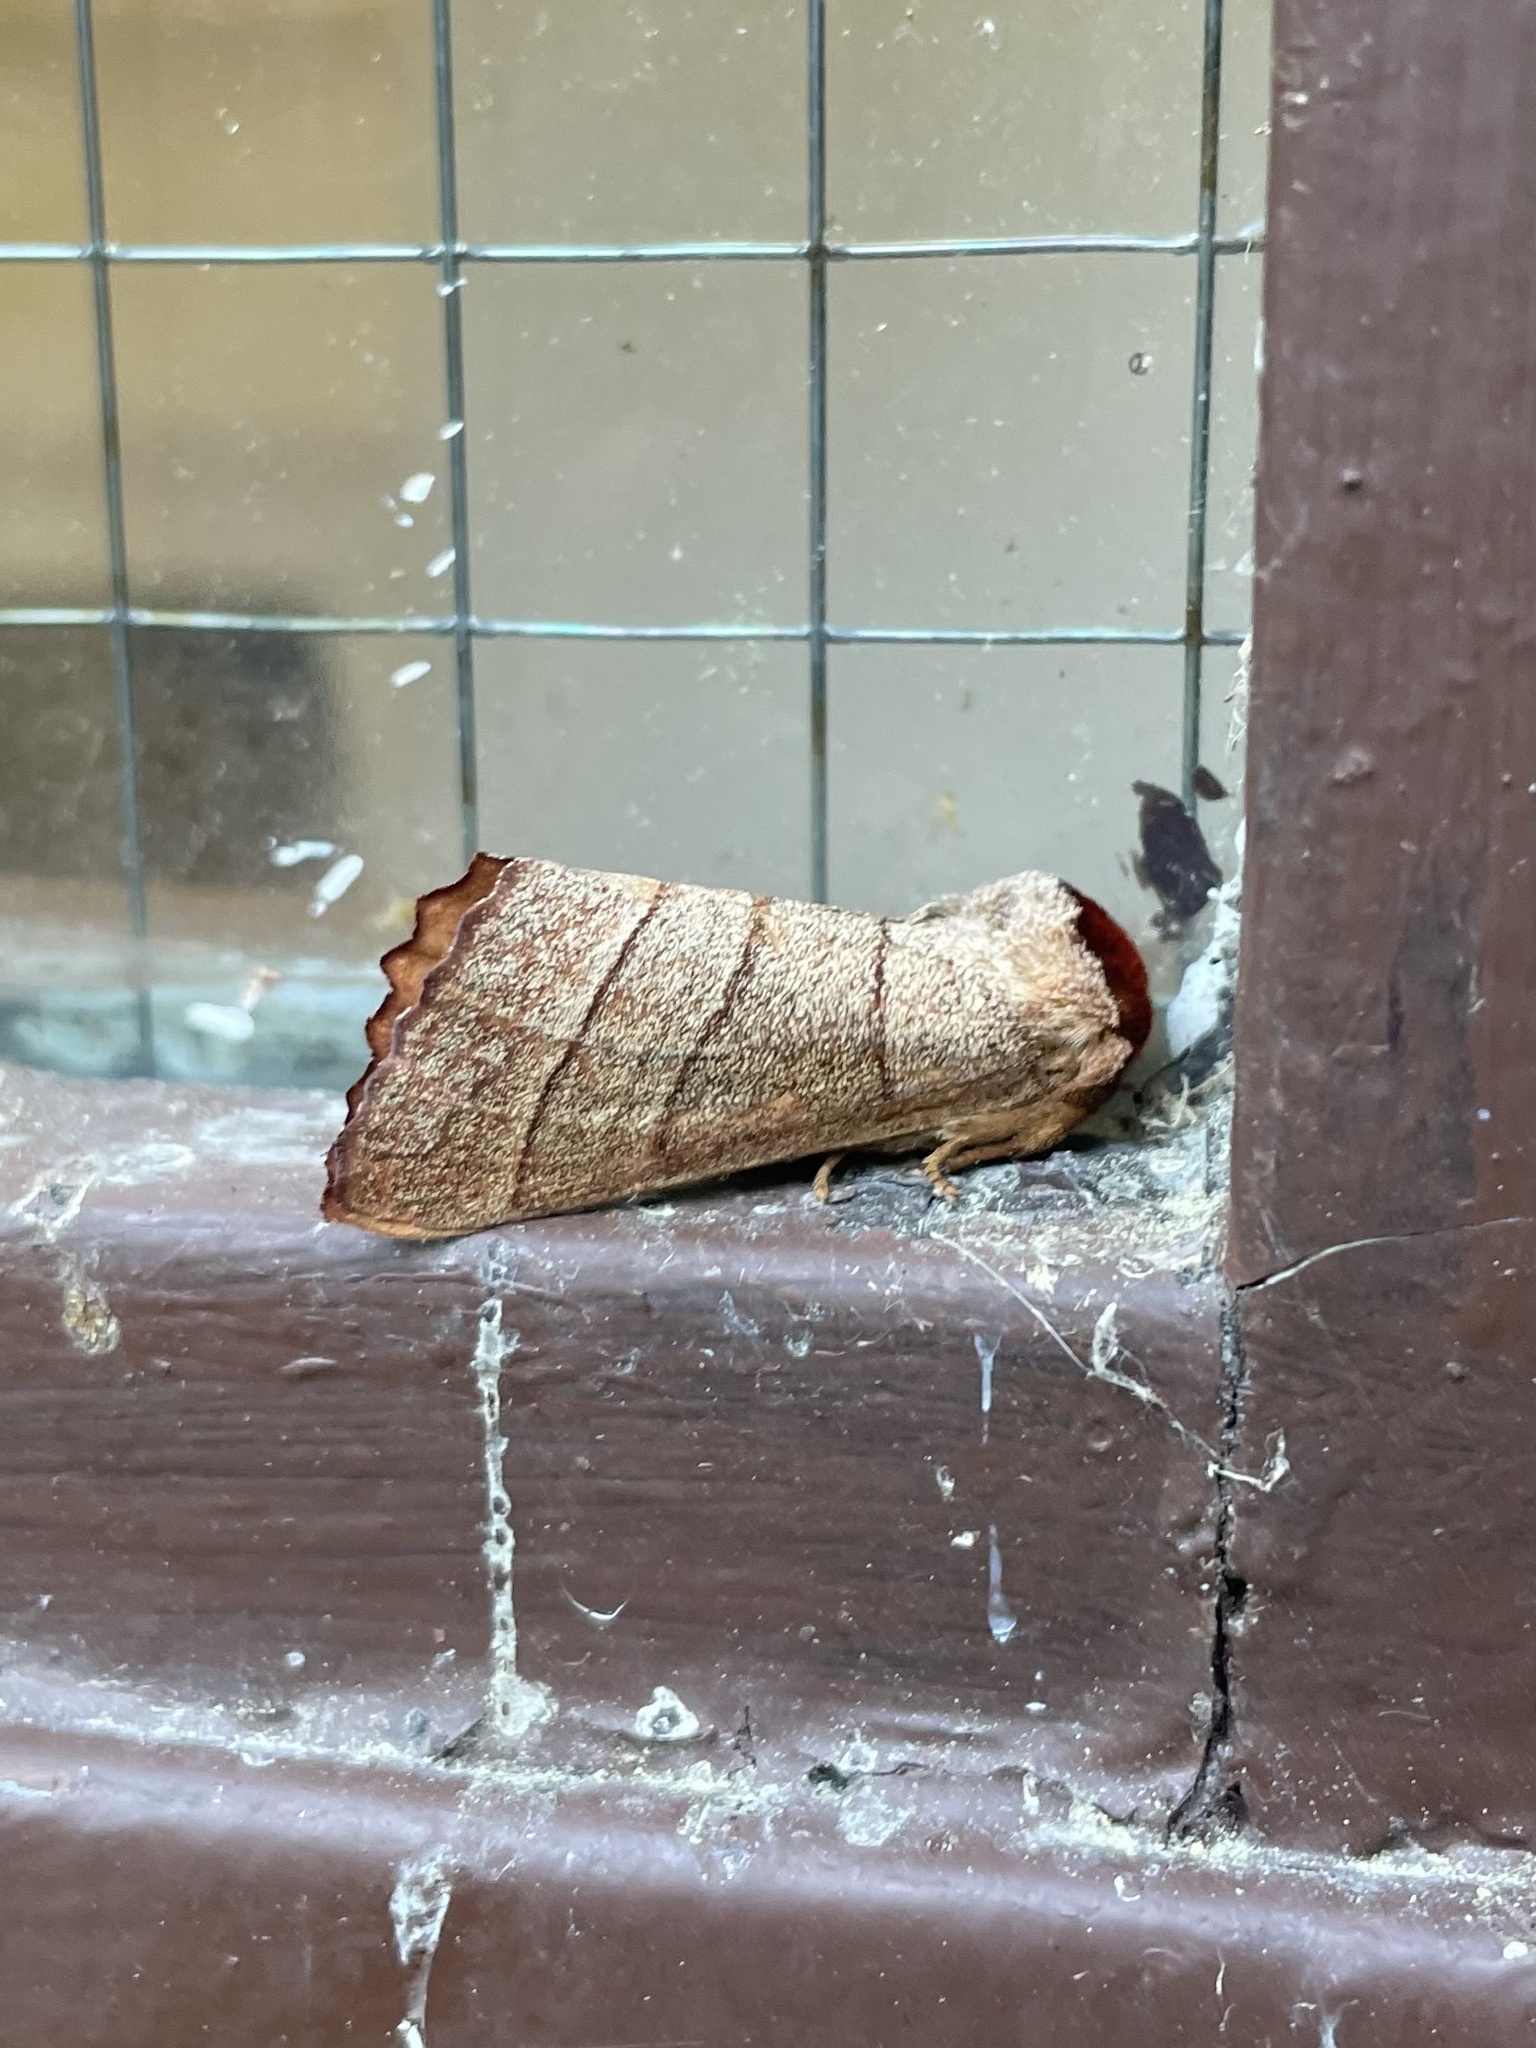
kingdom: Animalia
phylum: Arthropoda
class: Insecta
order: Lepidoptera
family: Notodontidae
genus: Datana
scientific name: Datana ministra
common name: Yellow-necked caterpillar moth
